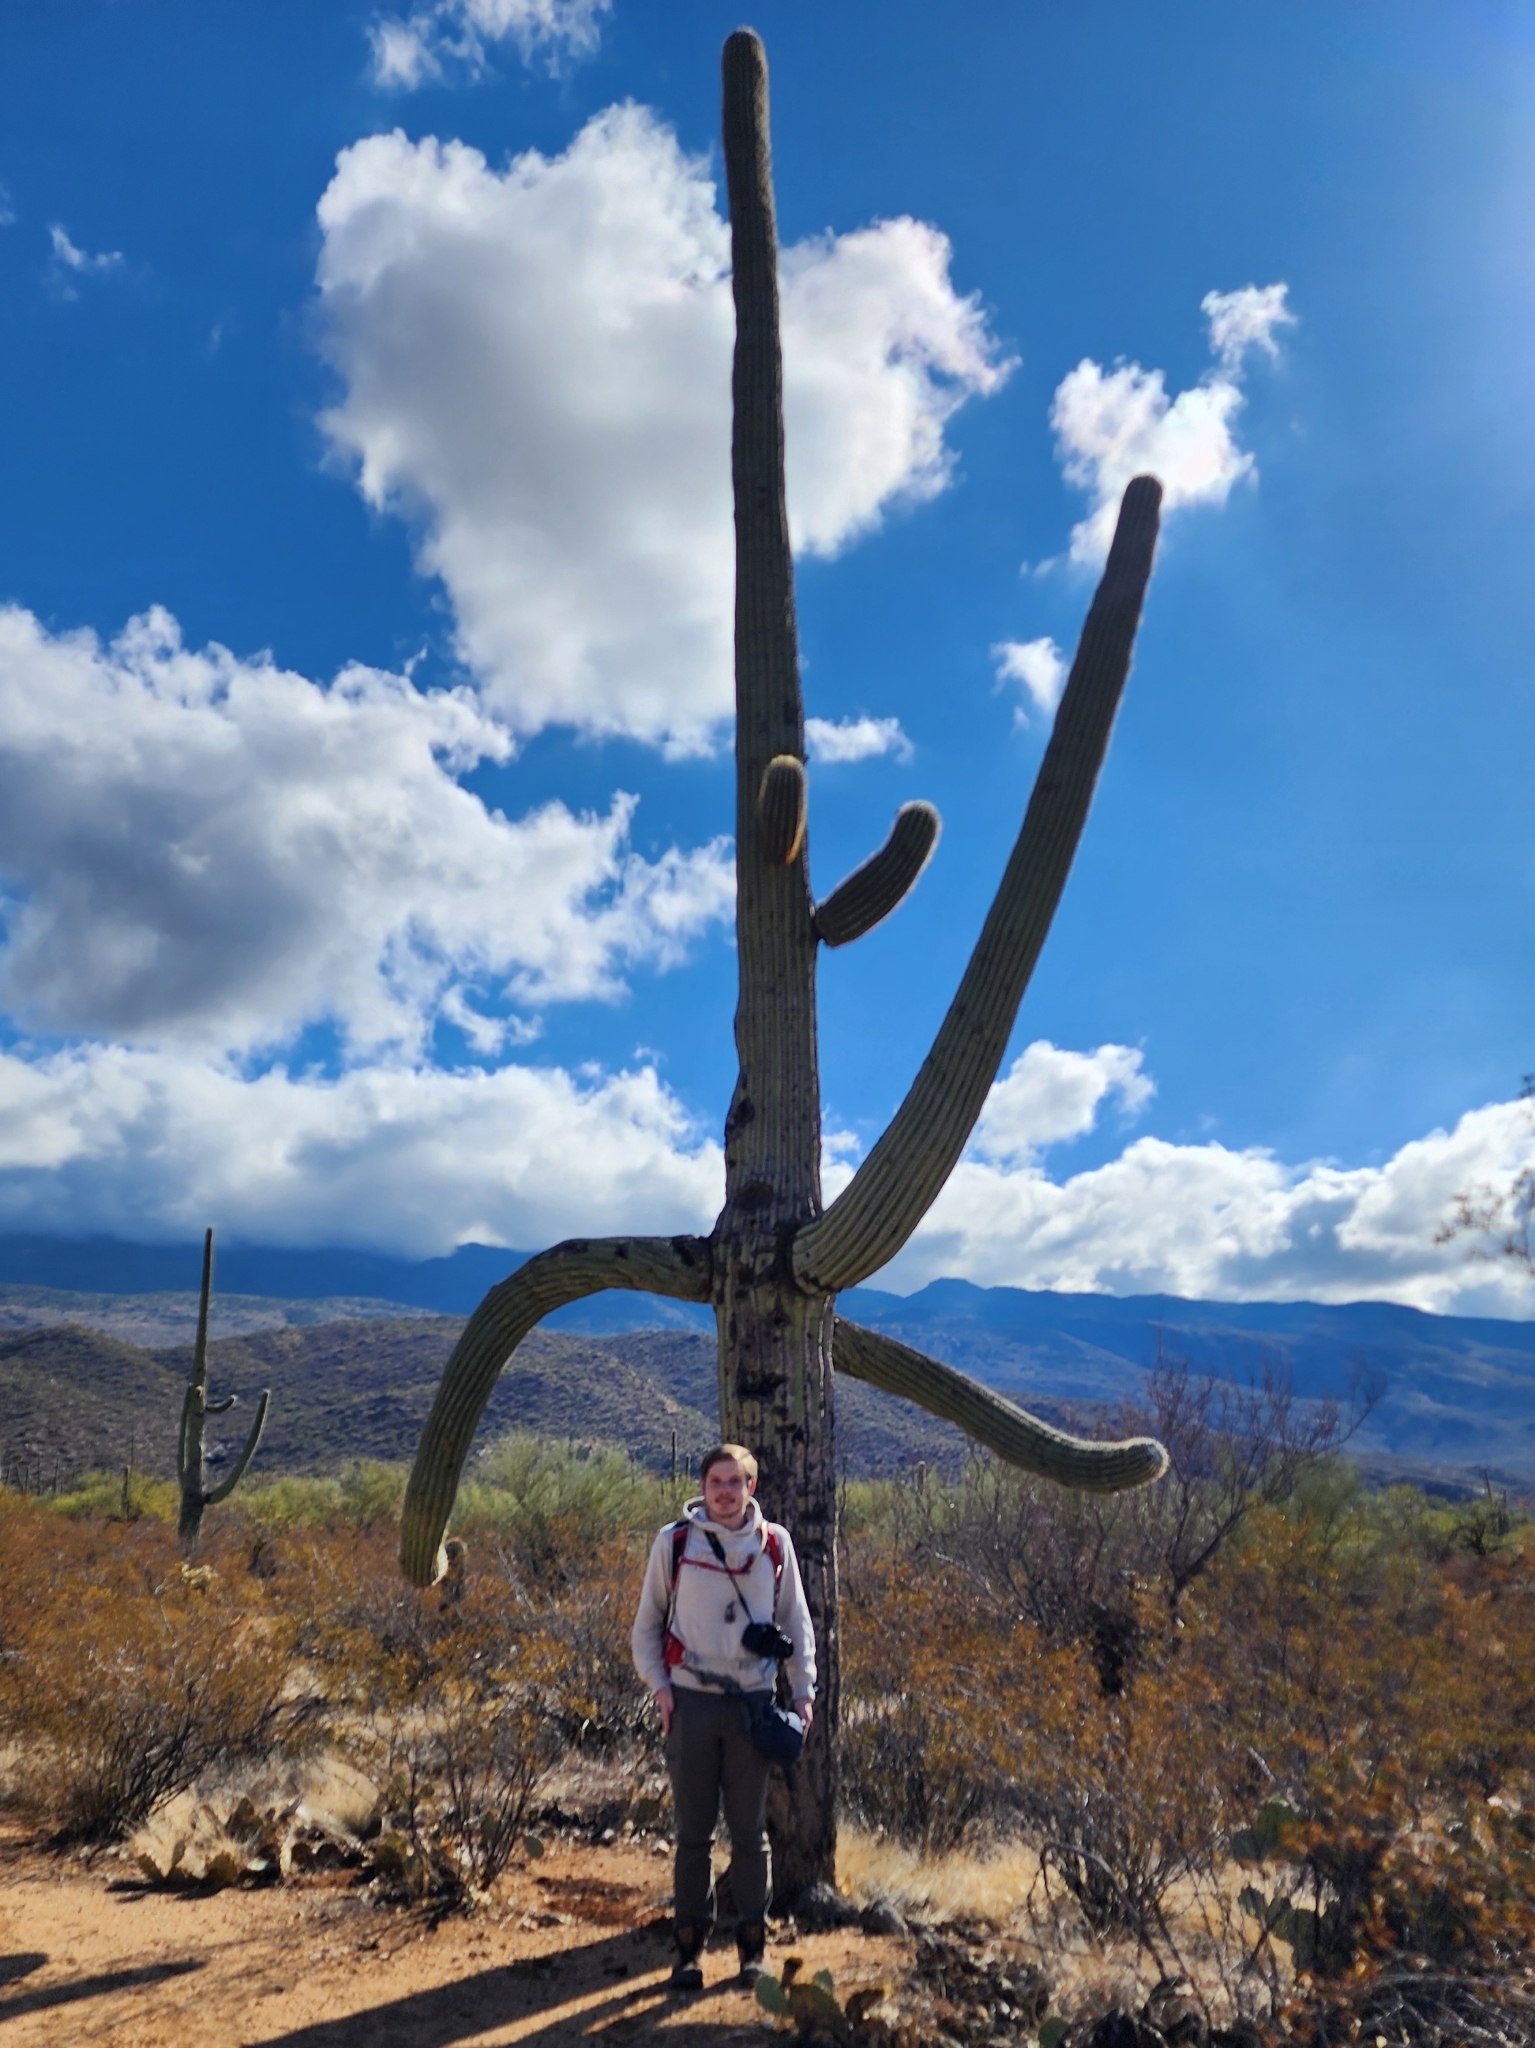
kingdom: Plantae
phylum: Tracheophyta
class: Magnoliopsida
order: Caryophyllales
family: Cactaceae
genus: Carnegiea
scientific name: Carnegiea gigantea
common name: Saguaro
